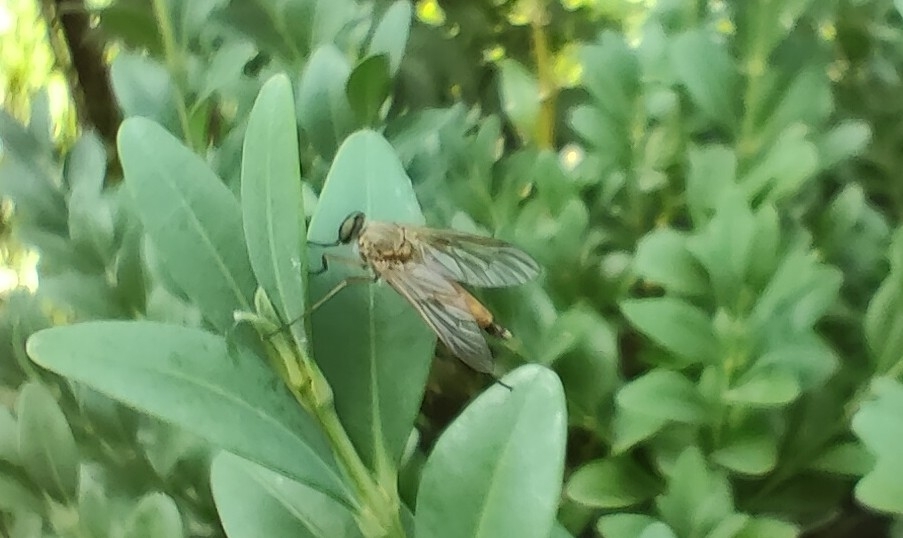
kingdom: Animalia
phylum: Arthropoda
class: Insecta
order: Diptera
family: Rhagionidae
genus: Rhagio
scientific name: Rhagio tringaria
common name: Marsh snipefly
